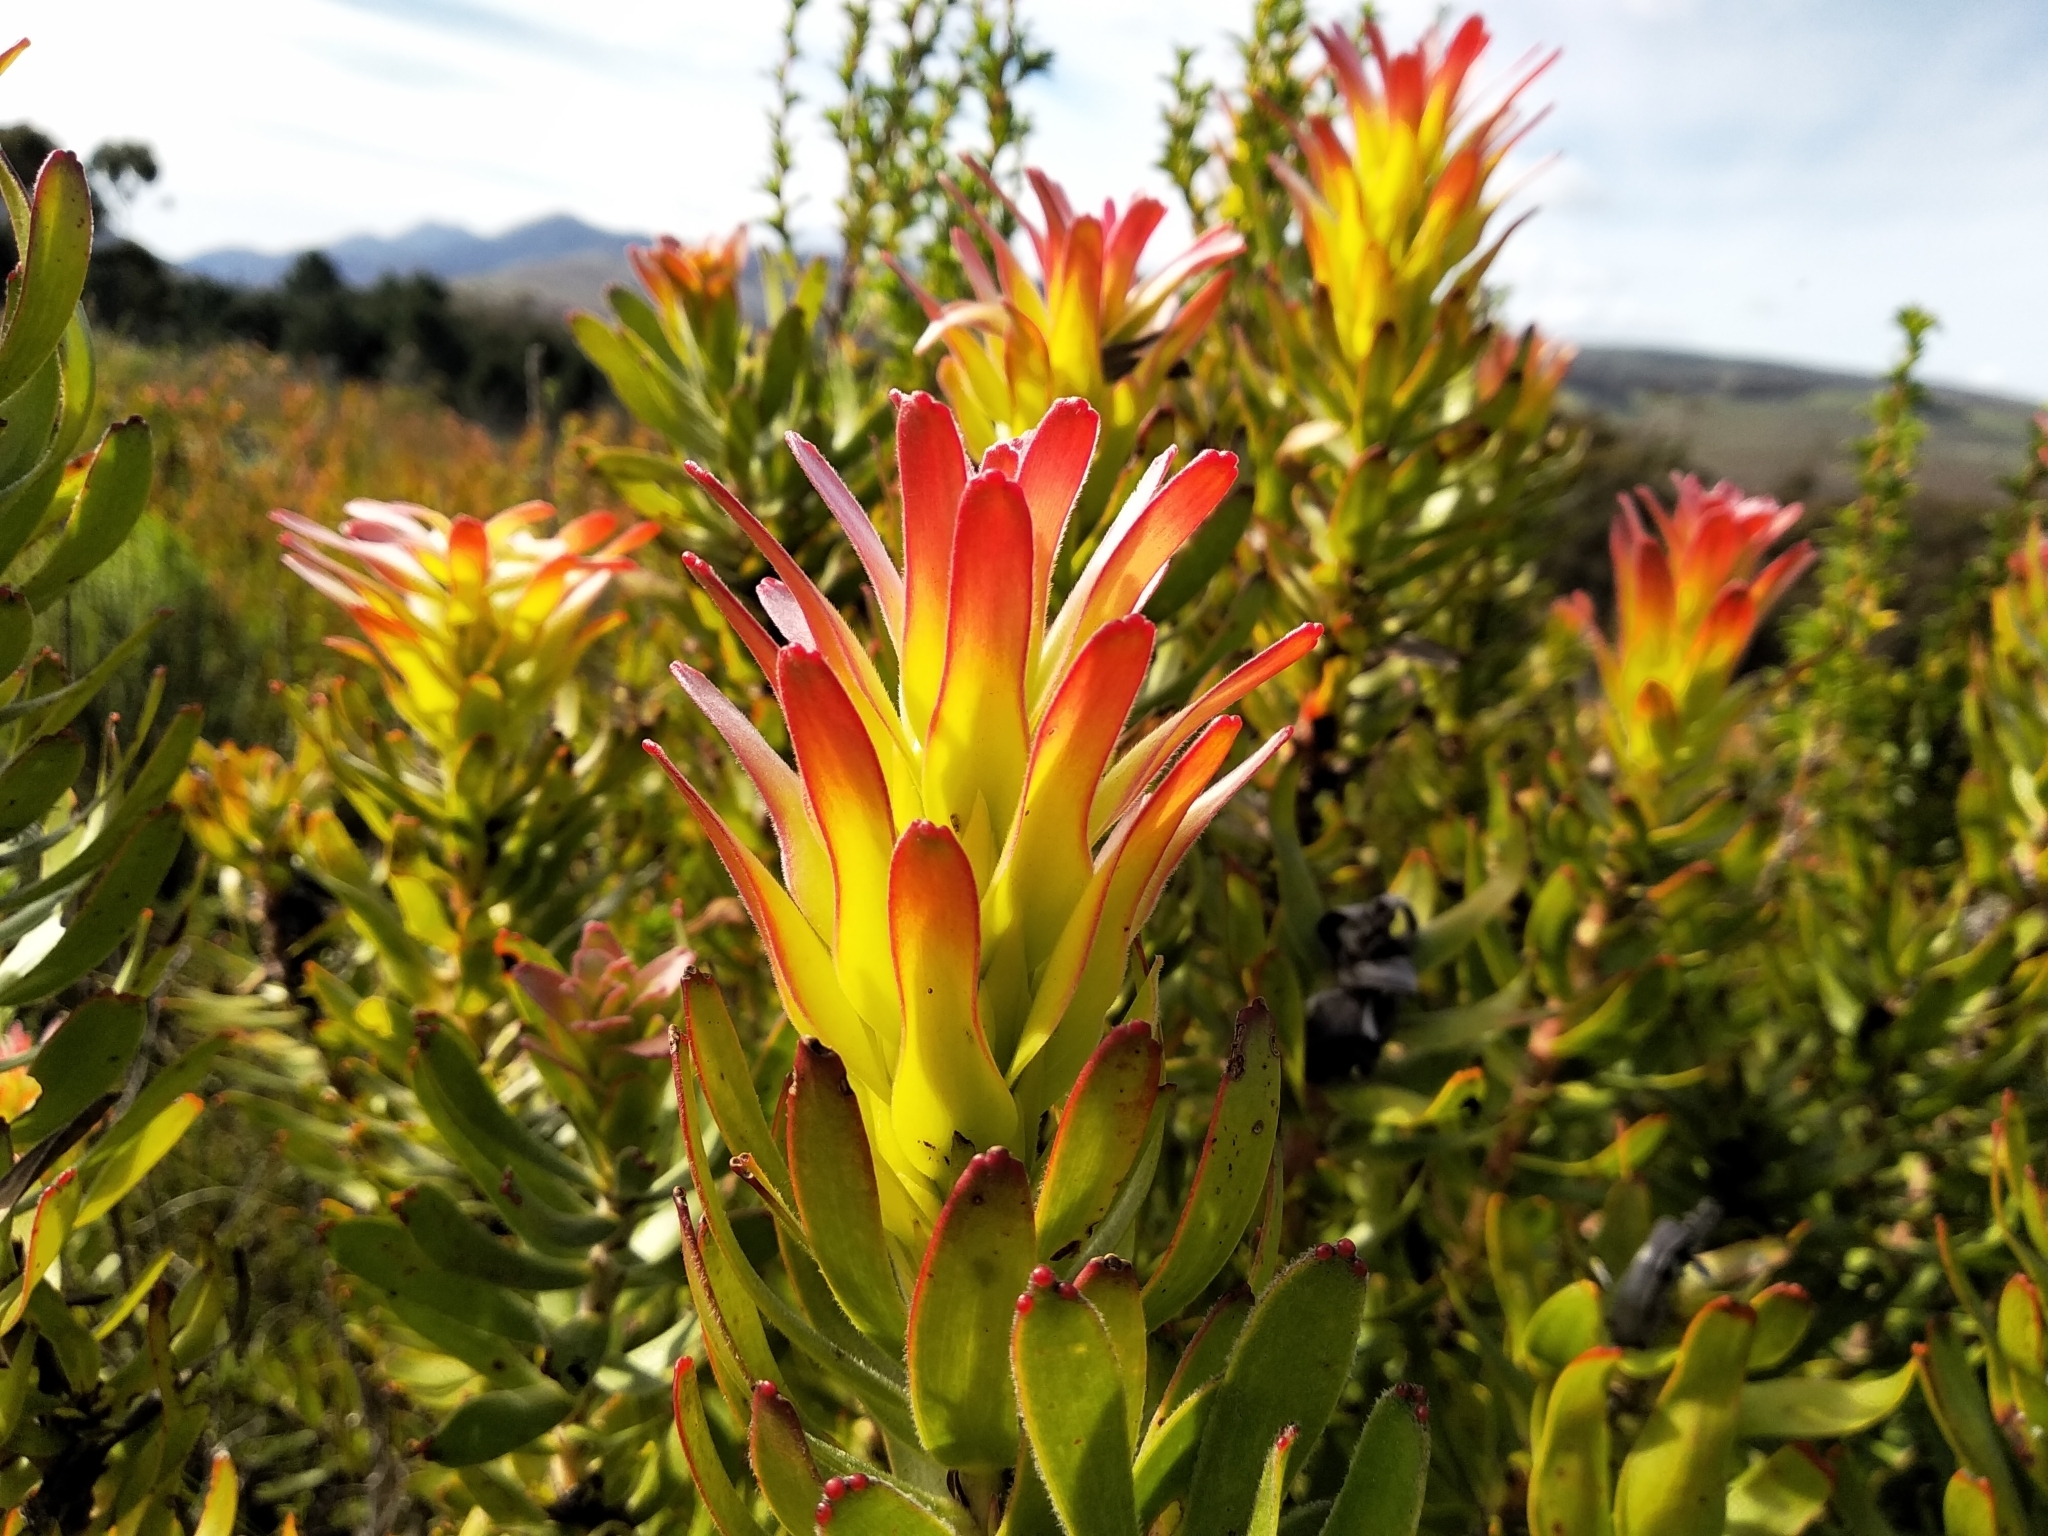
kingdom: Plantae
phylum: Tracheophyta
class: Magnoliopsida
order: Proteales
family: Proteaceae
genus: Mimetes
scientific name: Mimetes cucullatus
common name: Common pagoda
